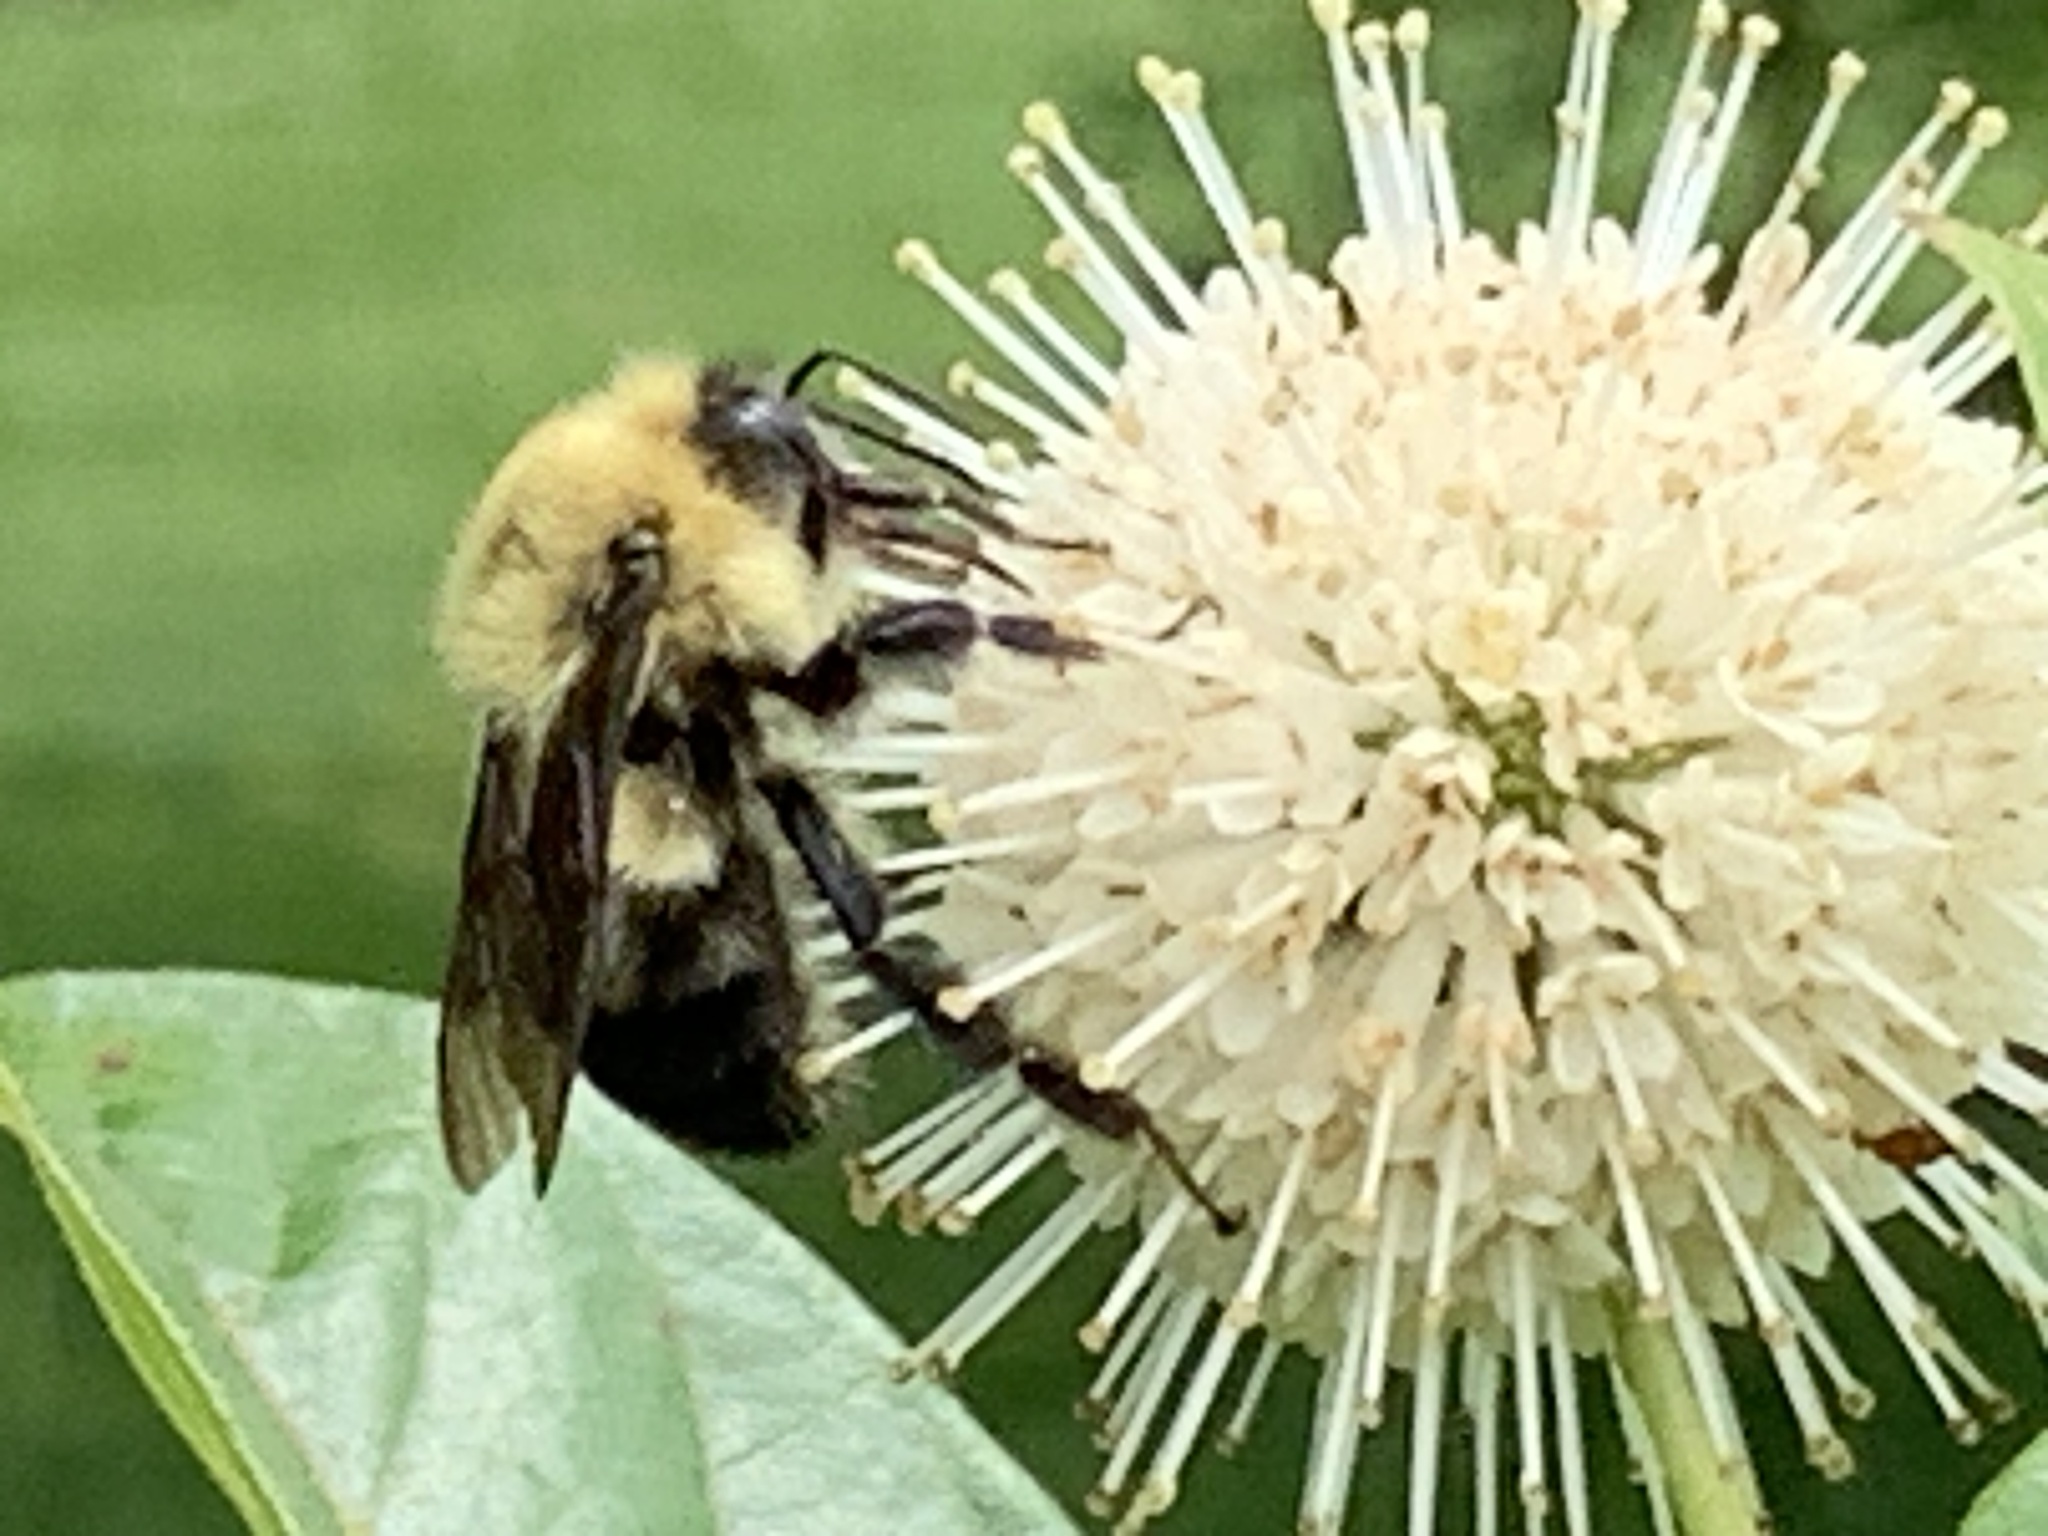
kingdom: Animalia
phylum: Arthropoda
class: Insecta
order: Hymenoptera
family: Apidae
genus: Bombus
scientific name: Bombus bimaculatus
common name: Two-spotted bumble bee
